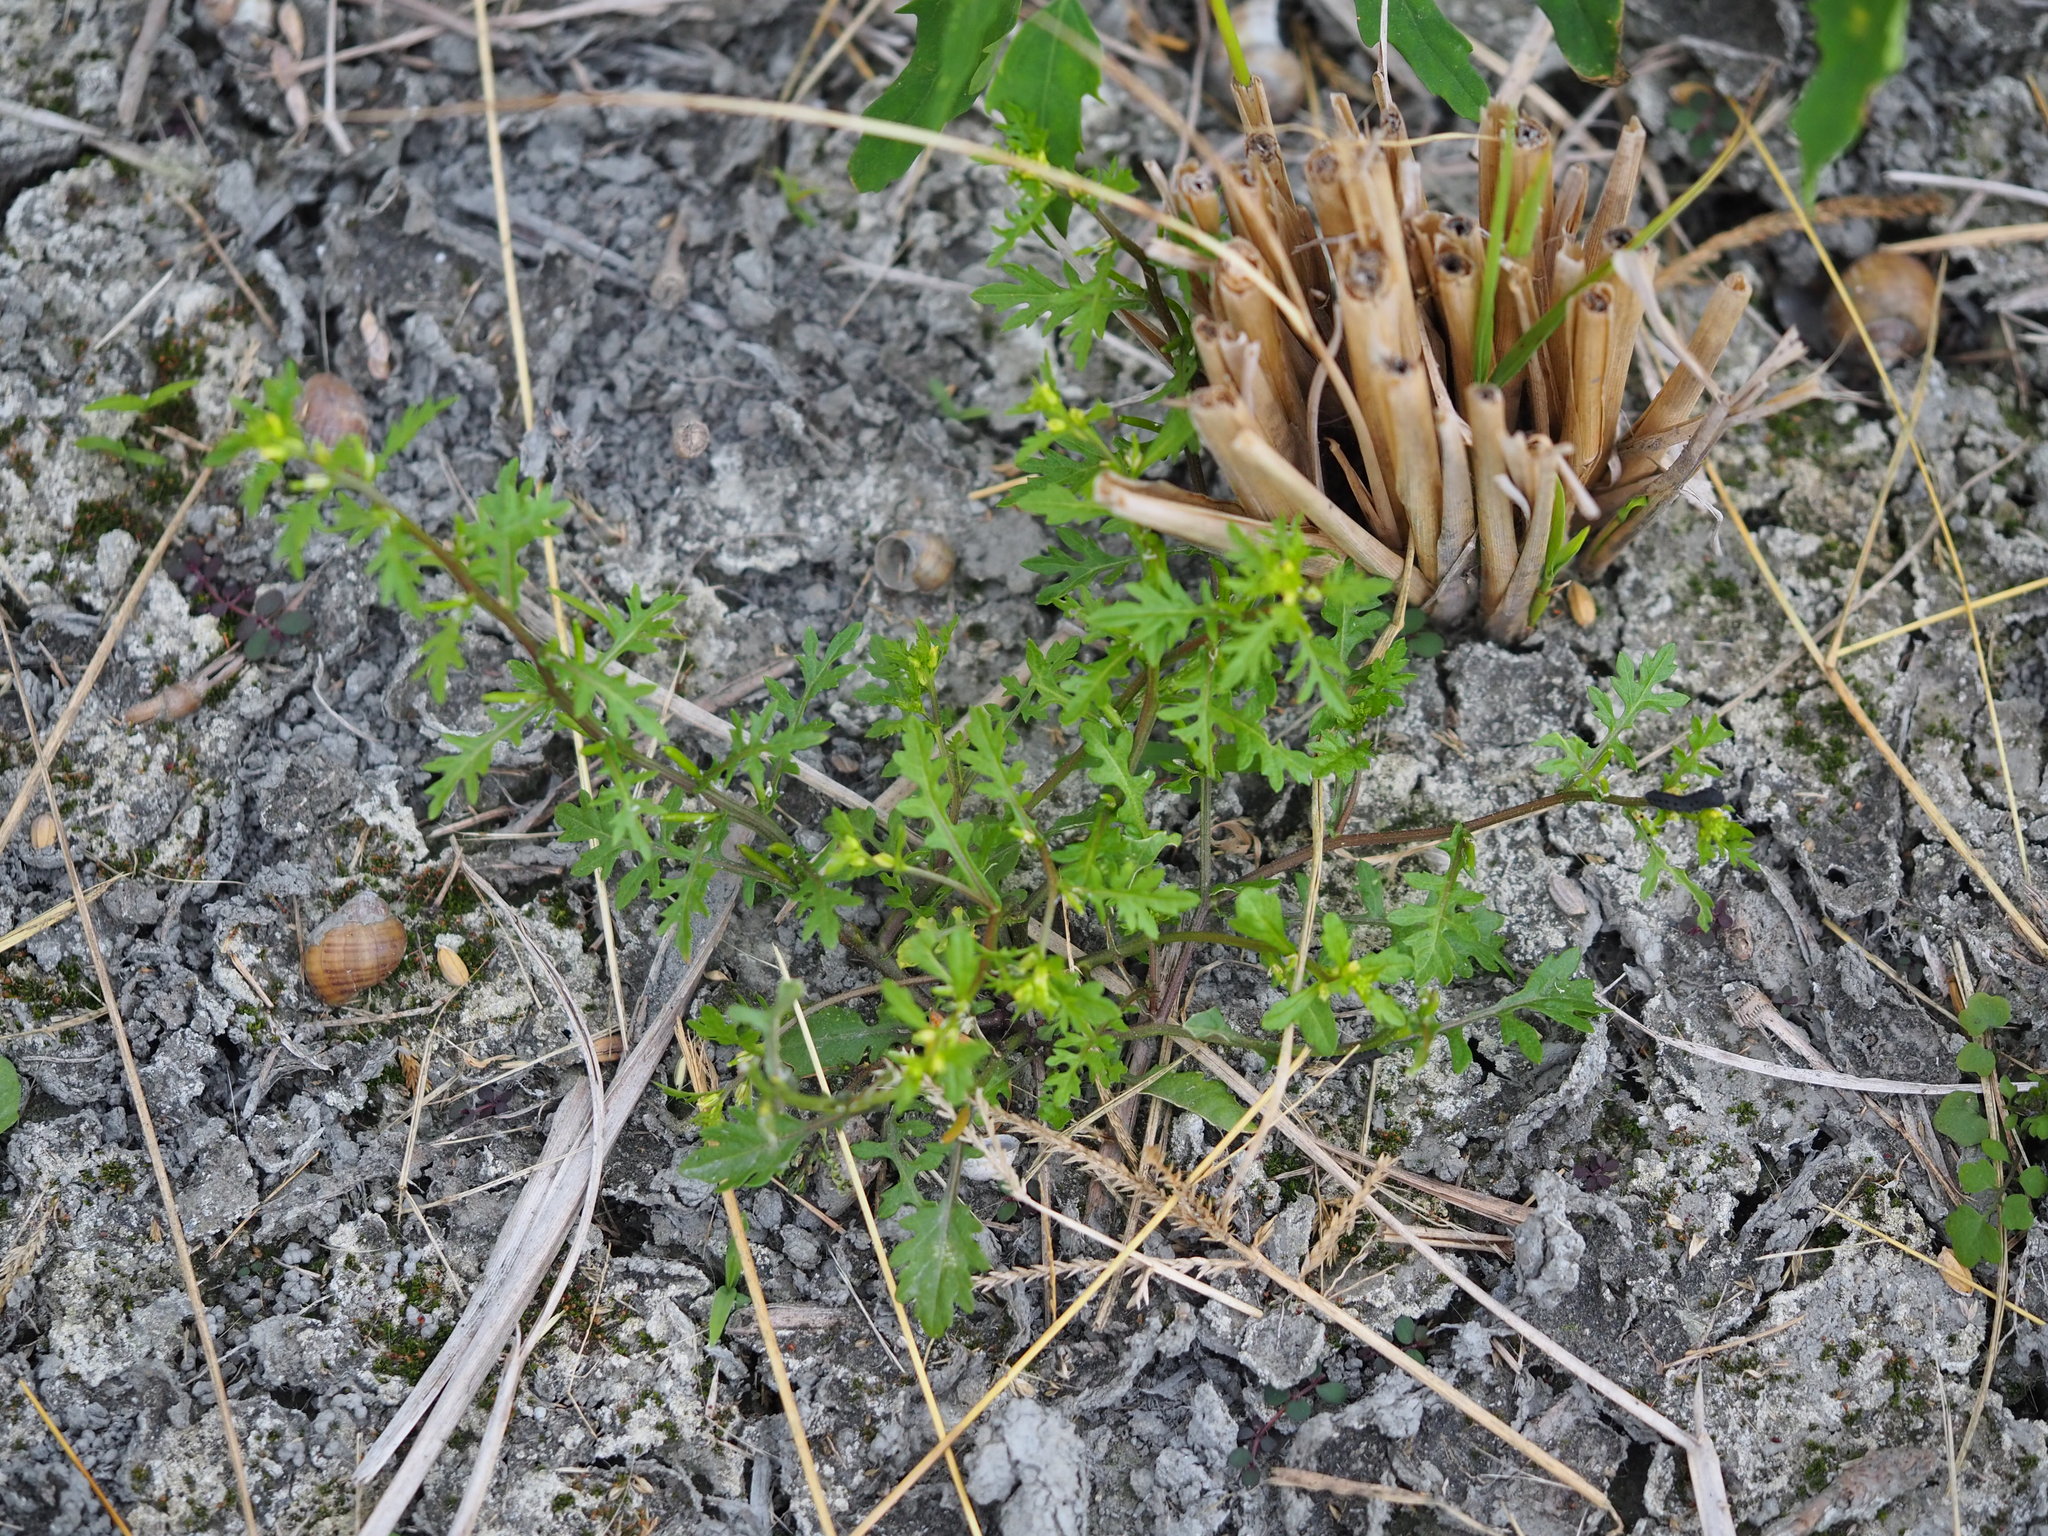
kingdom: Plantae
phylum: Tracheophyta
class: Magnoliopsida
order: Brassicales
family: Brassicaceae
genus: Rorippa
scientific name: Rorippa cantoniensis
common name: Chinese yellowcress
